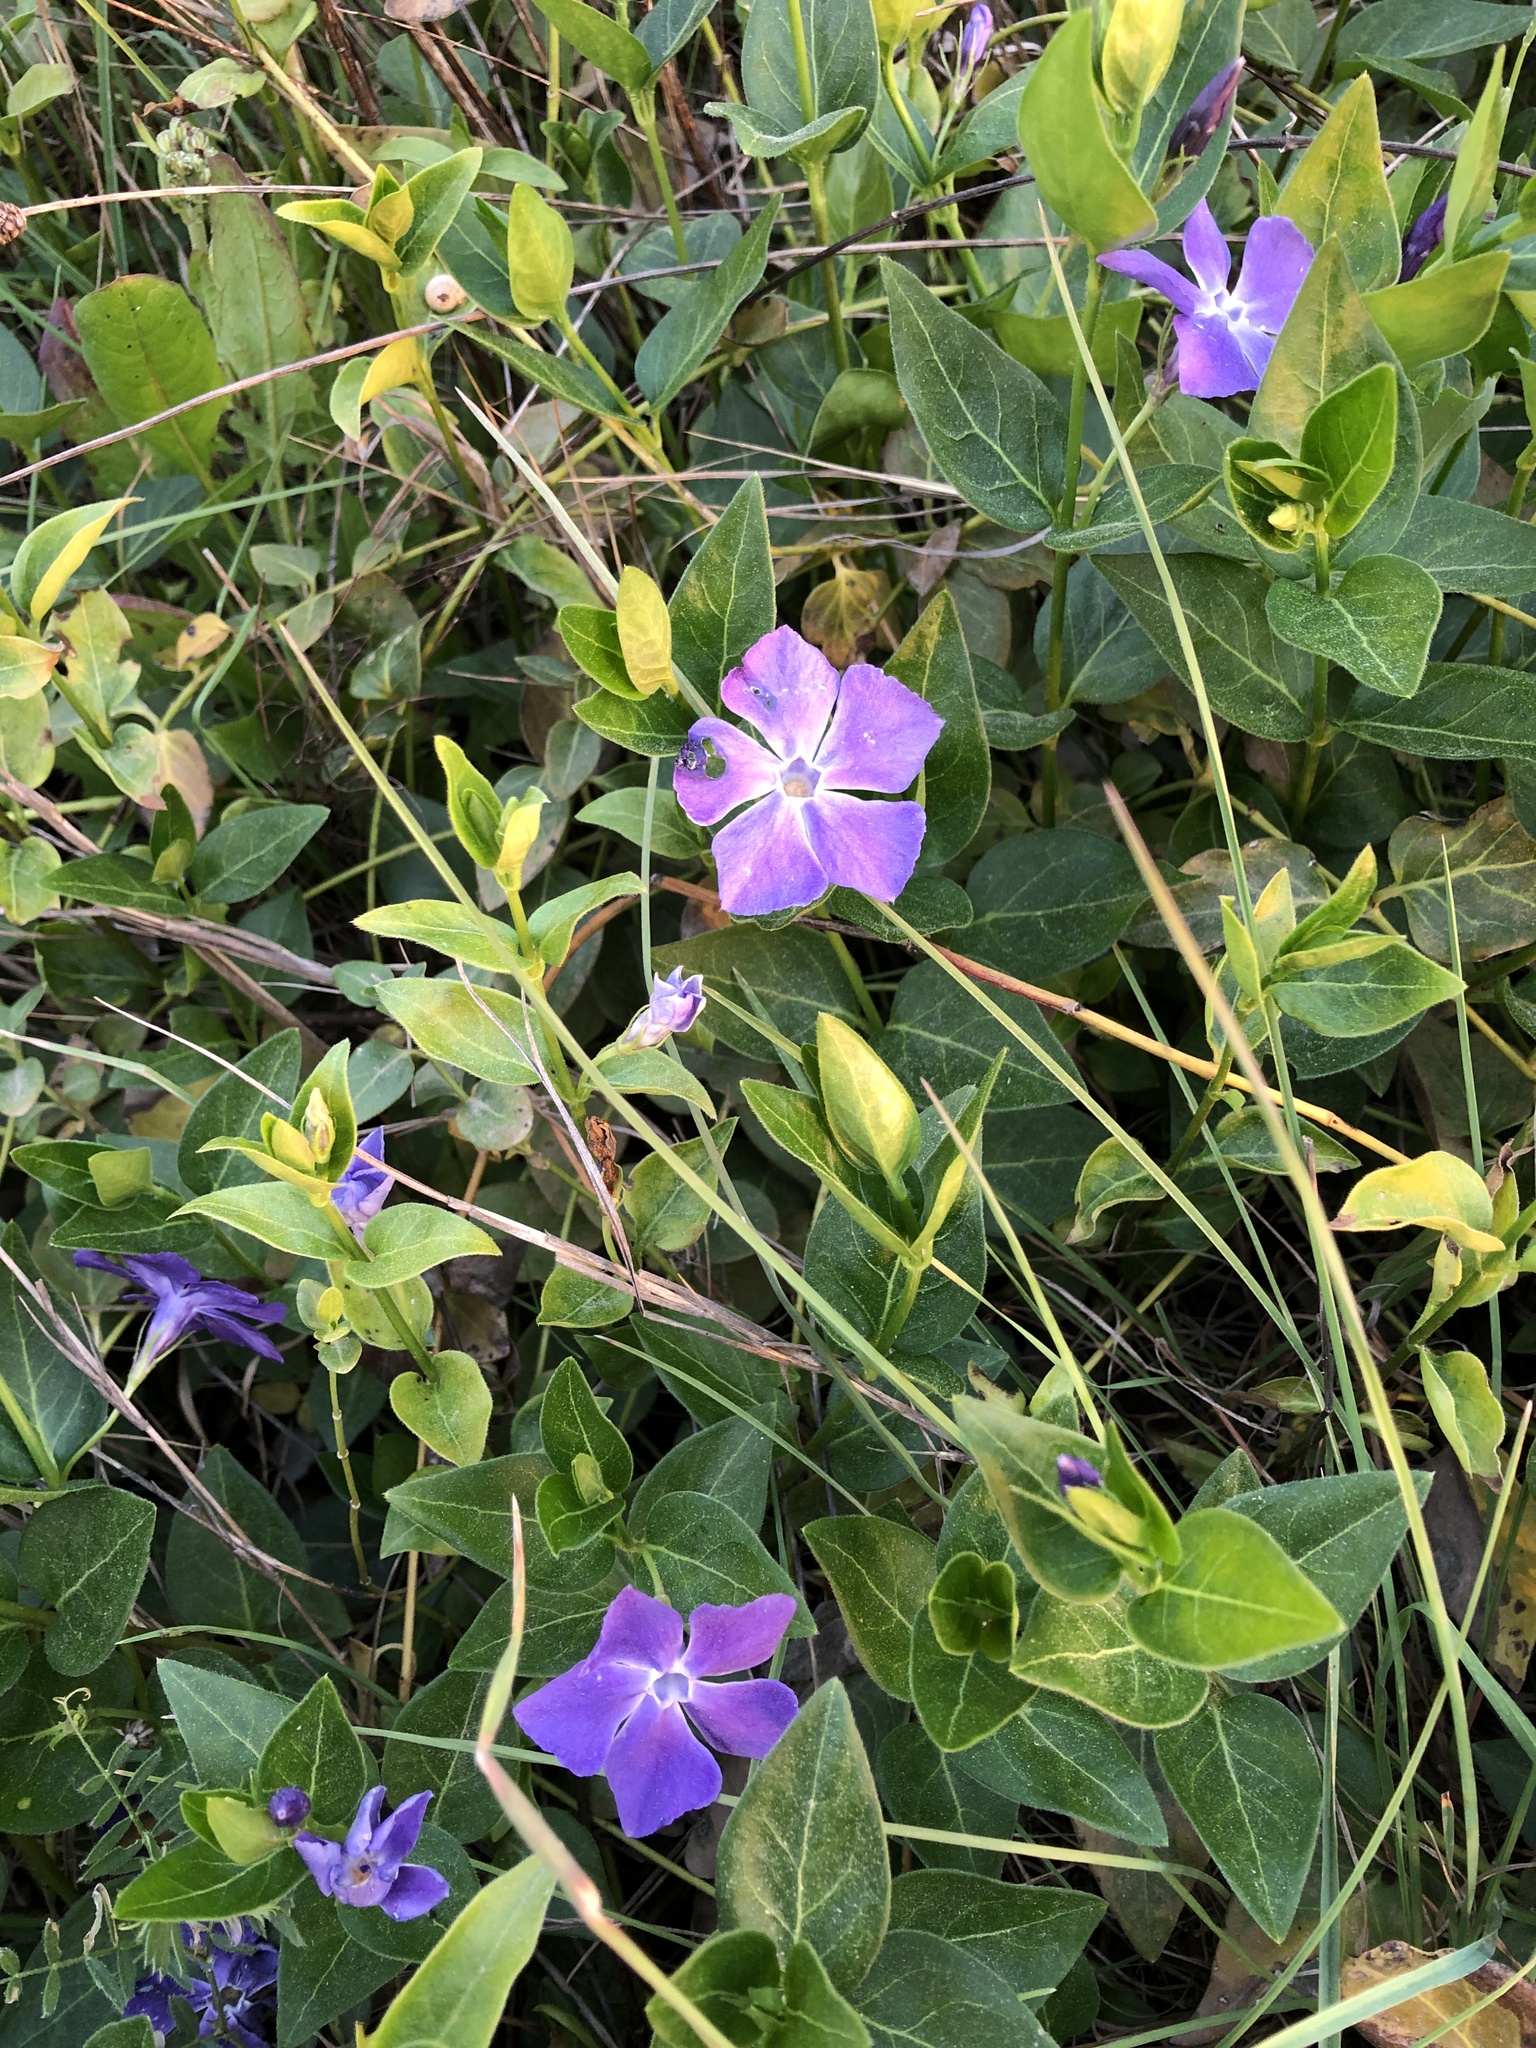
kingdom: Plantae
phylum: Tracheophyta
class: Magnoliopsida
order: Gentianales
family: Apocynaceae
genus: Vinca
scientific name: Vinca major
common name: Greater periwinkle
